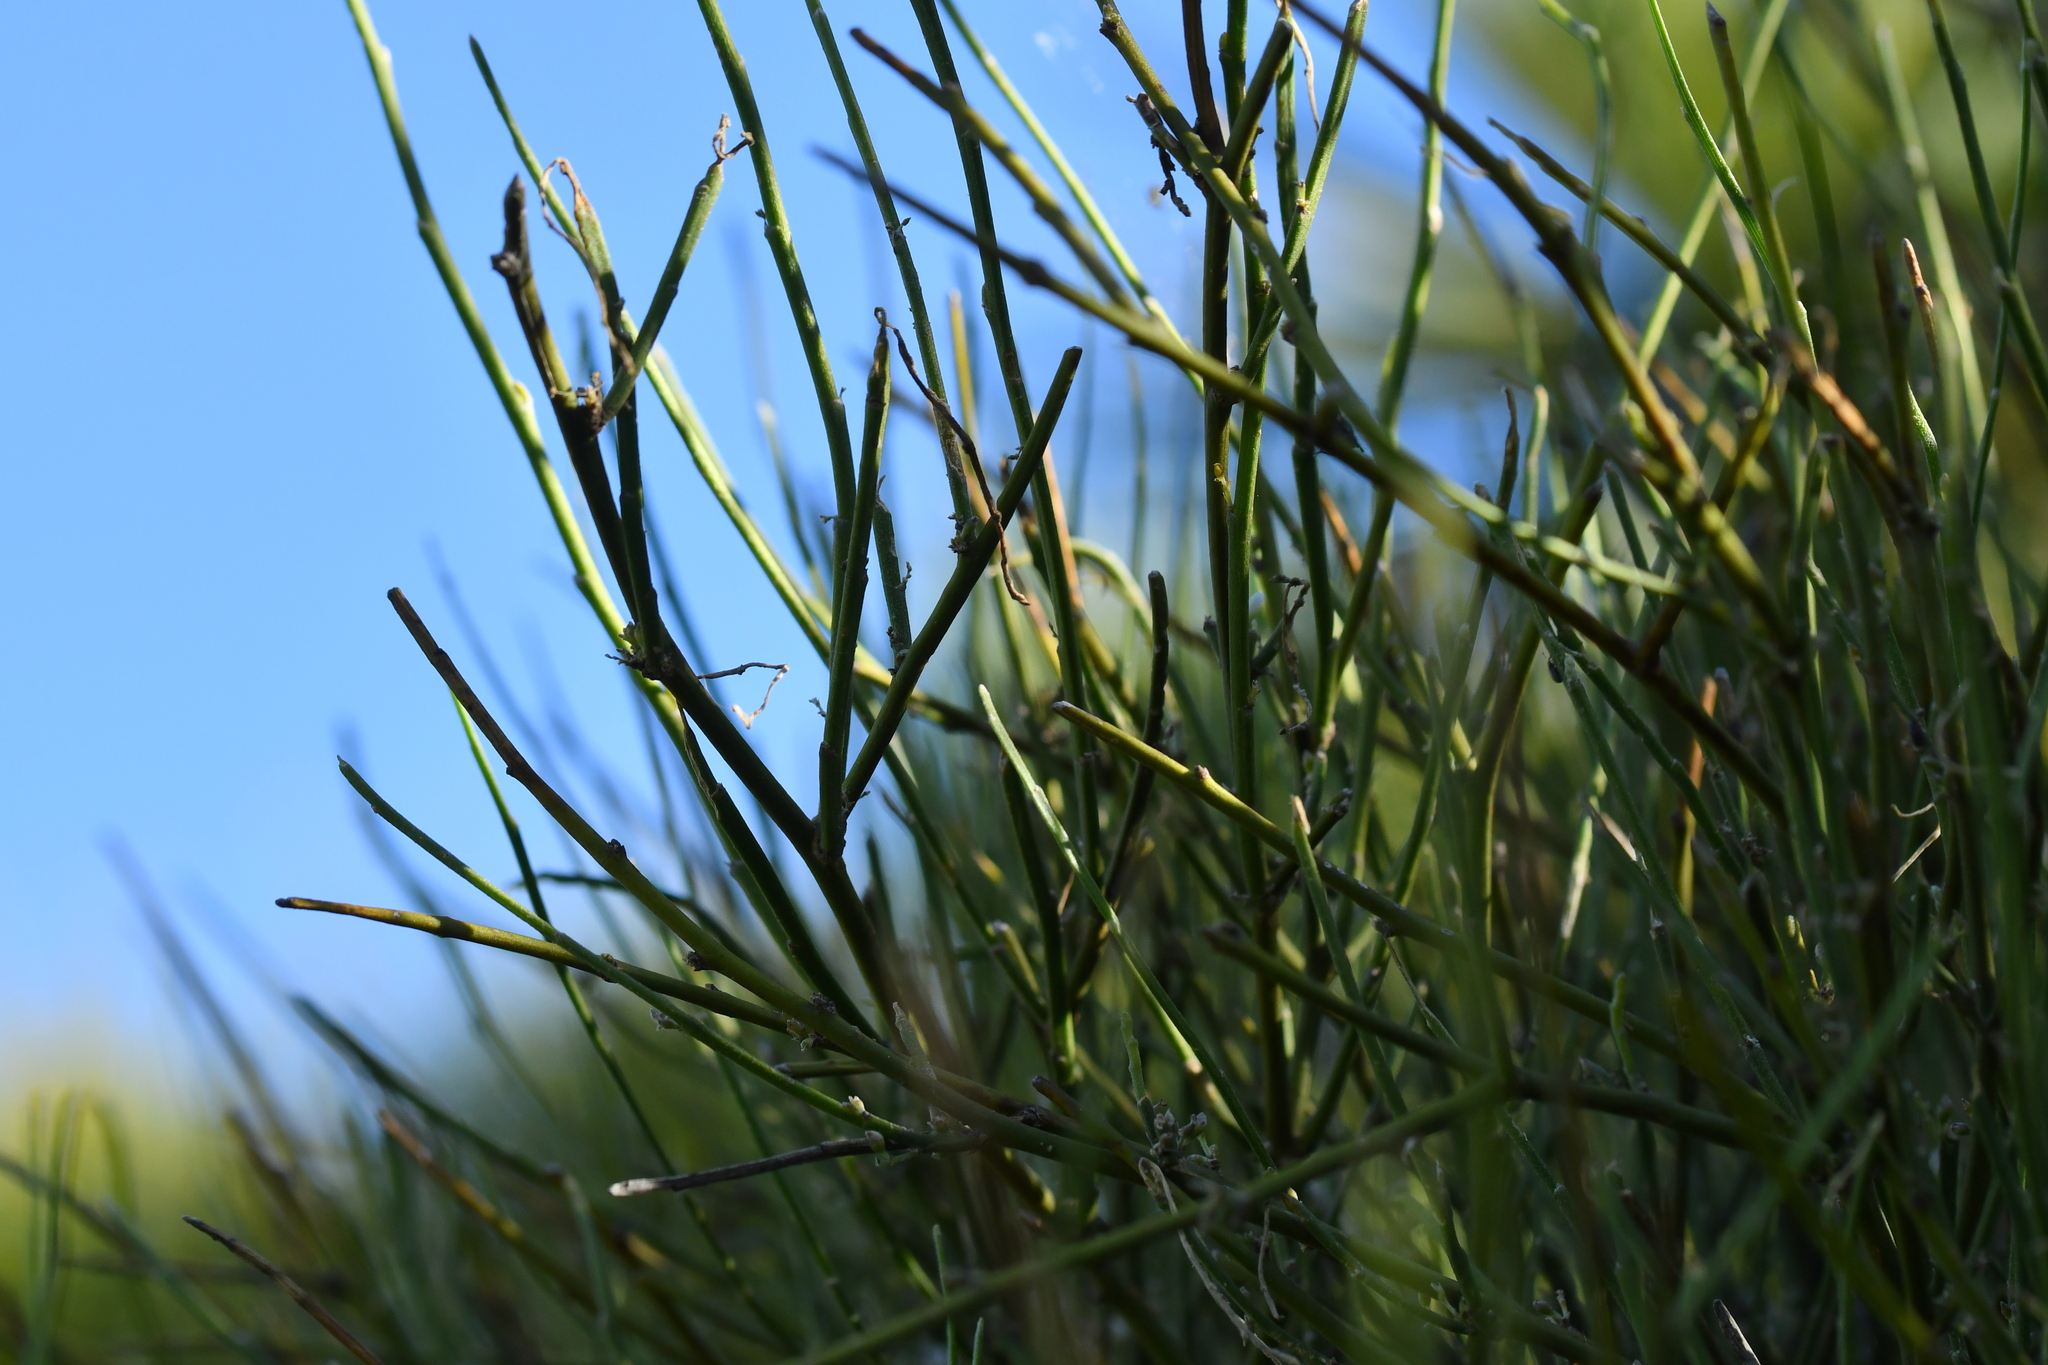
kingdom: Plantae
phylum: Tracheophyta
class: Magnoliopsida
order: Fabales
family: Fabaceae
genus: Carmichaelia
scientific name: Carmichaelia petriei
